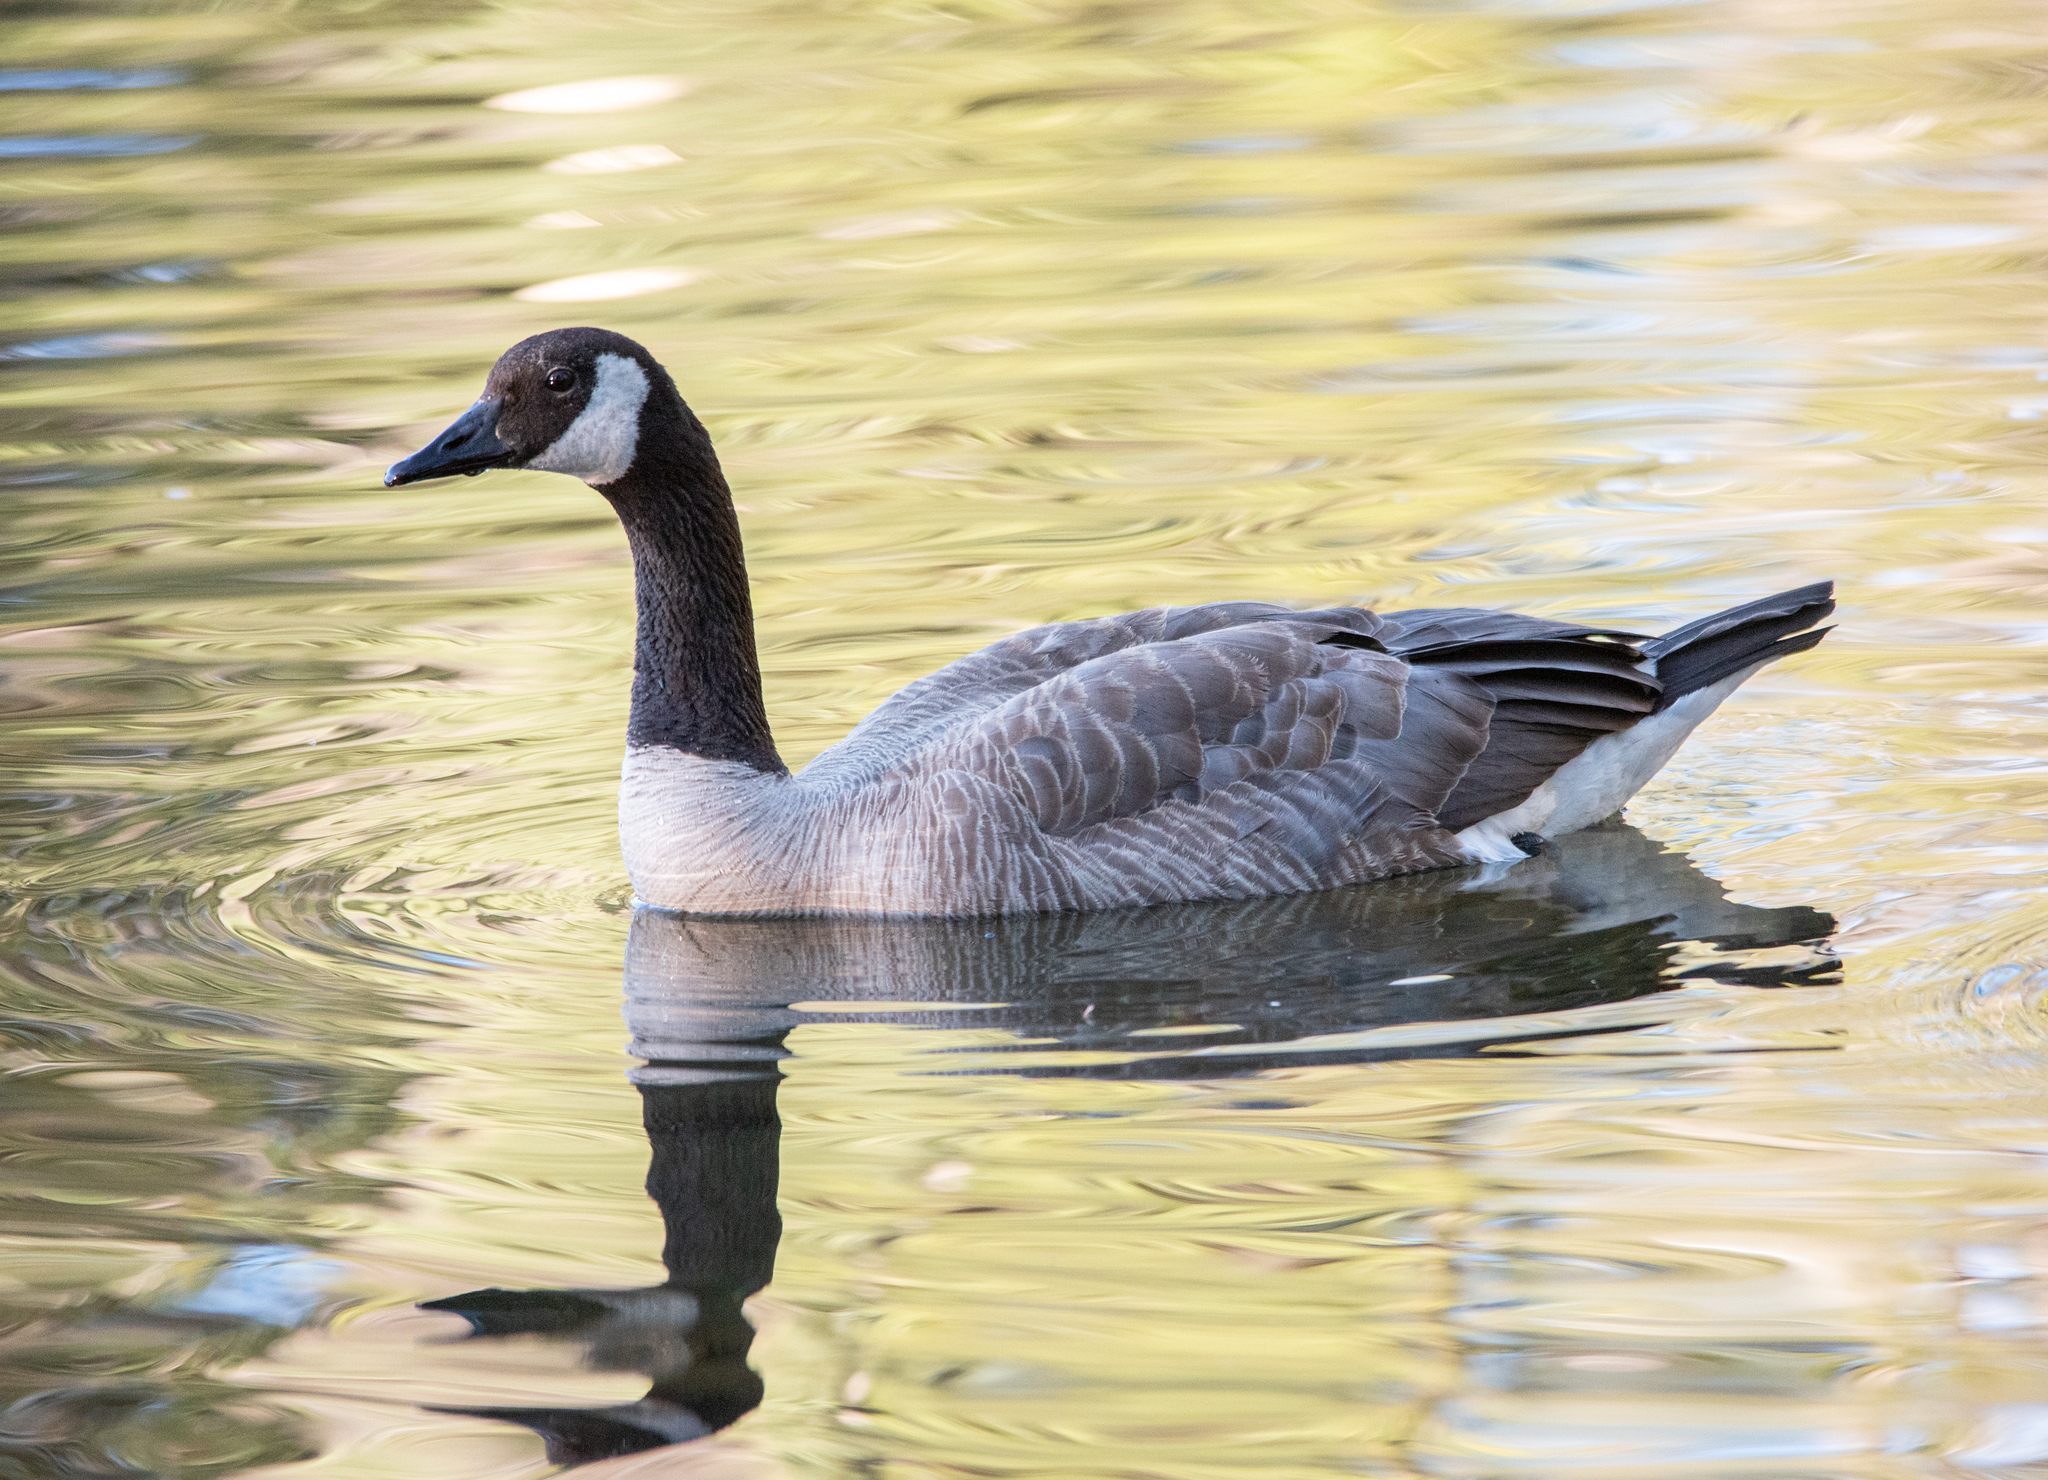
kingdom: Animalia
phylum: Chordata
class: Aves
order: Anseriformes
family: Anatidae
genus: Branta
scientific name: Branta canadensis
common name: Canada goose
